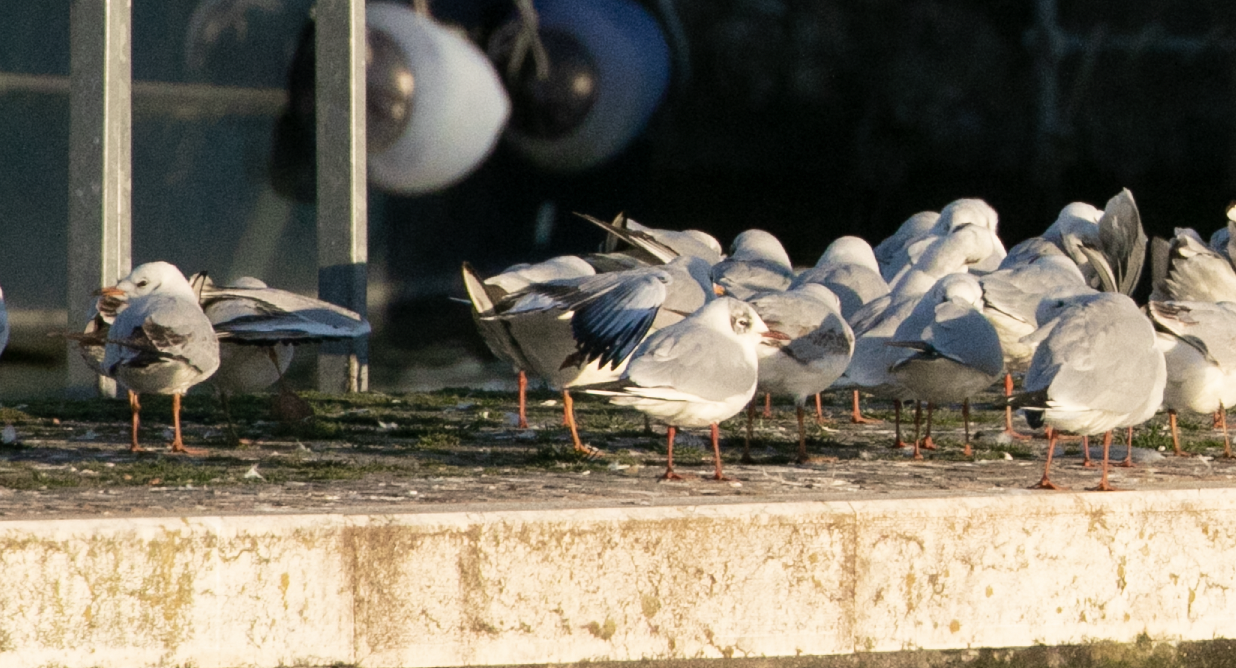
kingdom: Animalia
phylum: Chordata
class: Aves
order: Charadriiformes
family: Laridae
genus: Chroicocephalus
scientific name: Chroicocephalus ridibundus
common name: Black-headed gull
